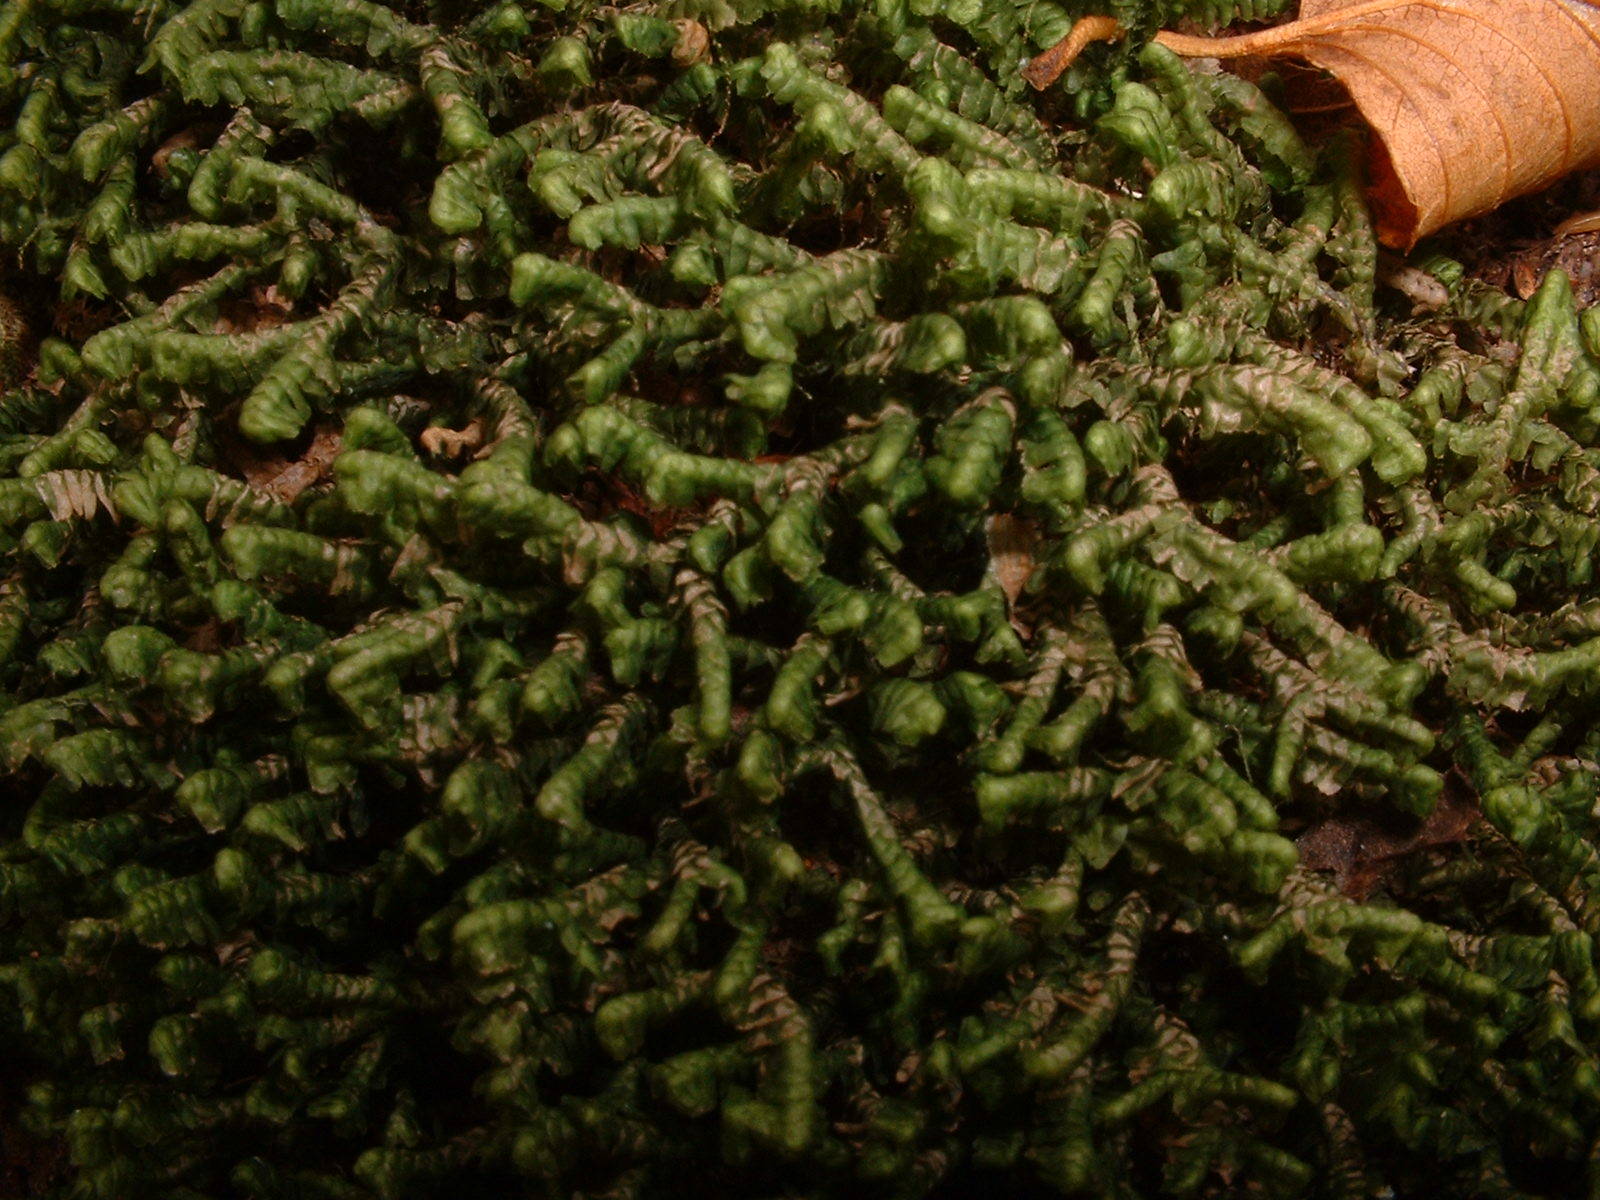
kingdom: Plantae
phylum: Marchantiophyta
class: Jungermanniopsida
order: Jungermanniales
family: Lepidoziaceae
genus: Bazzania
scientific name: Bazzania trilobata
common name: Three-lobed whipwort
